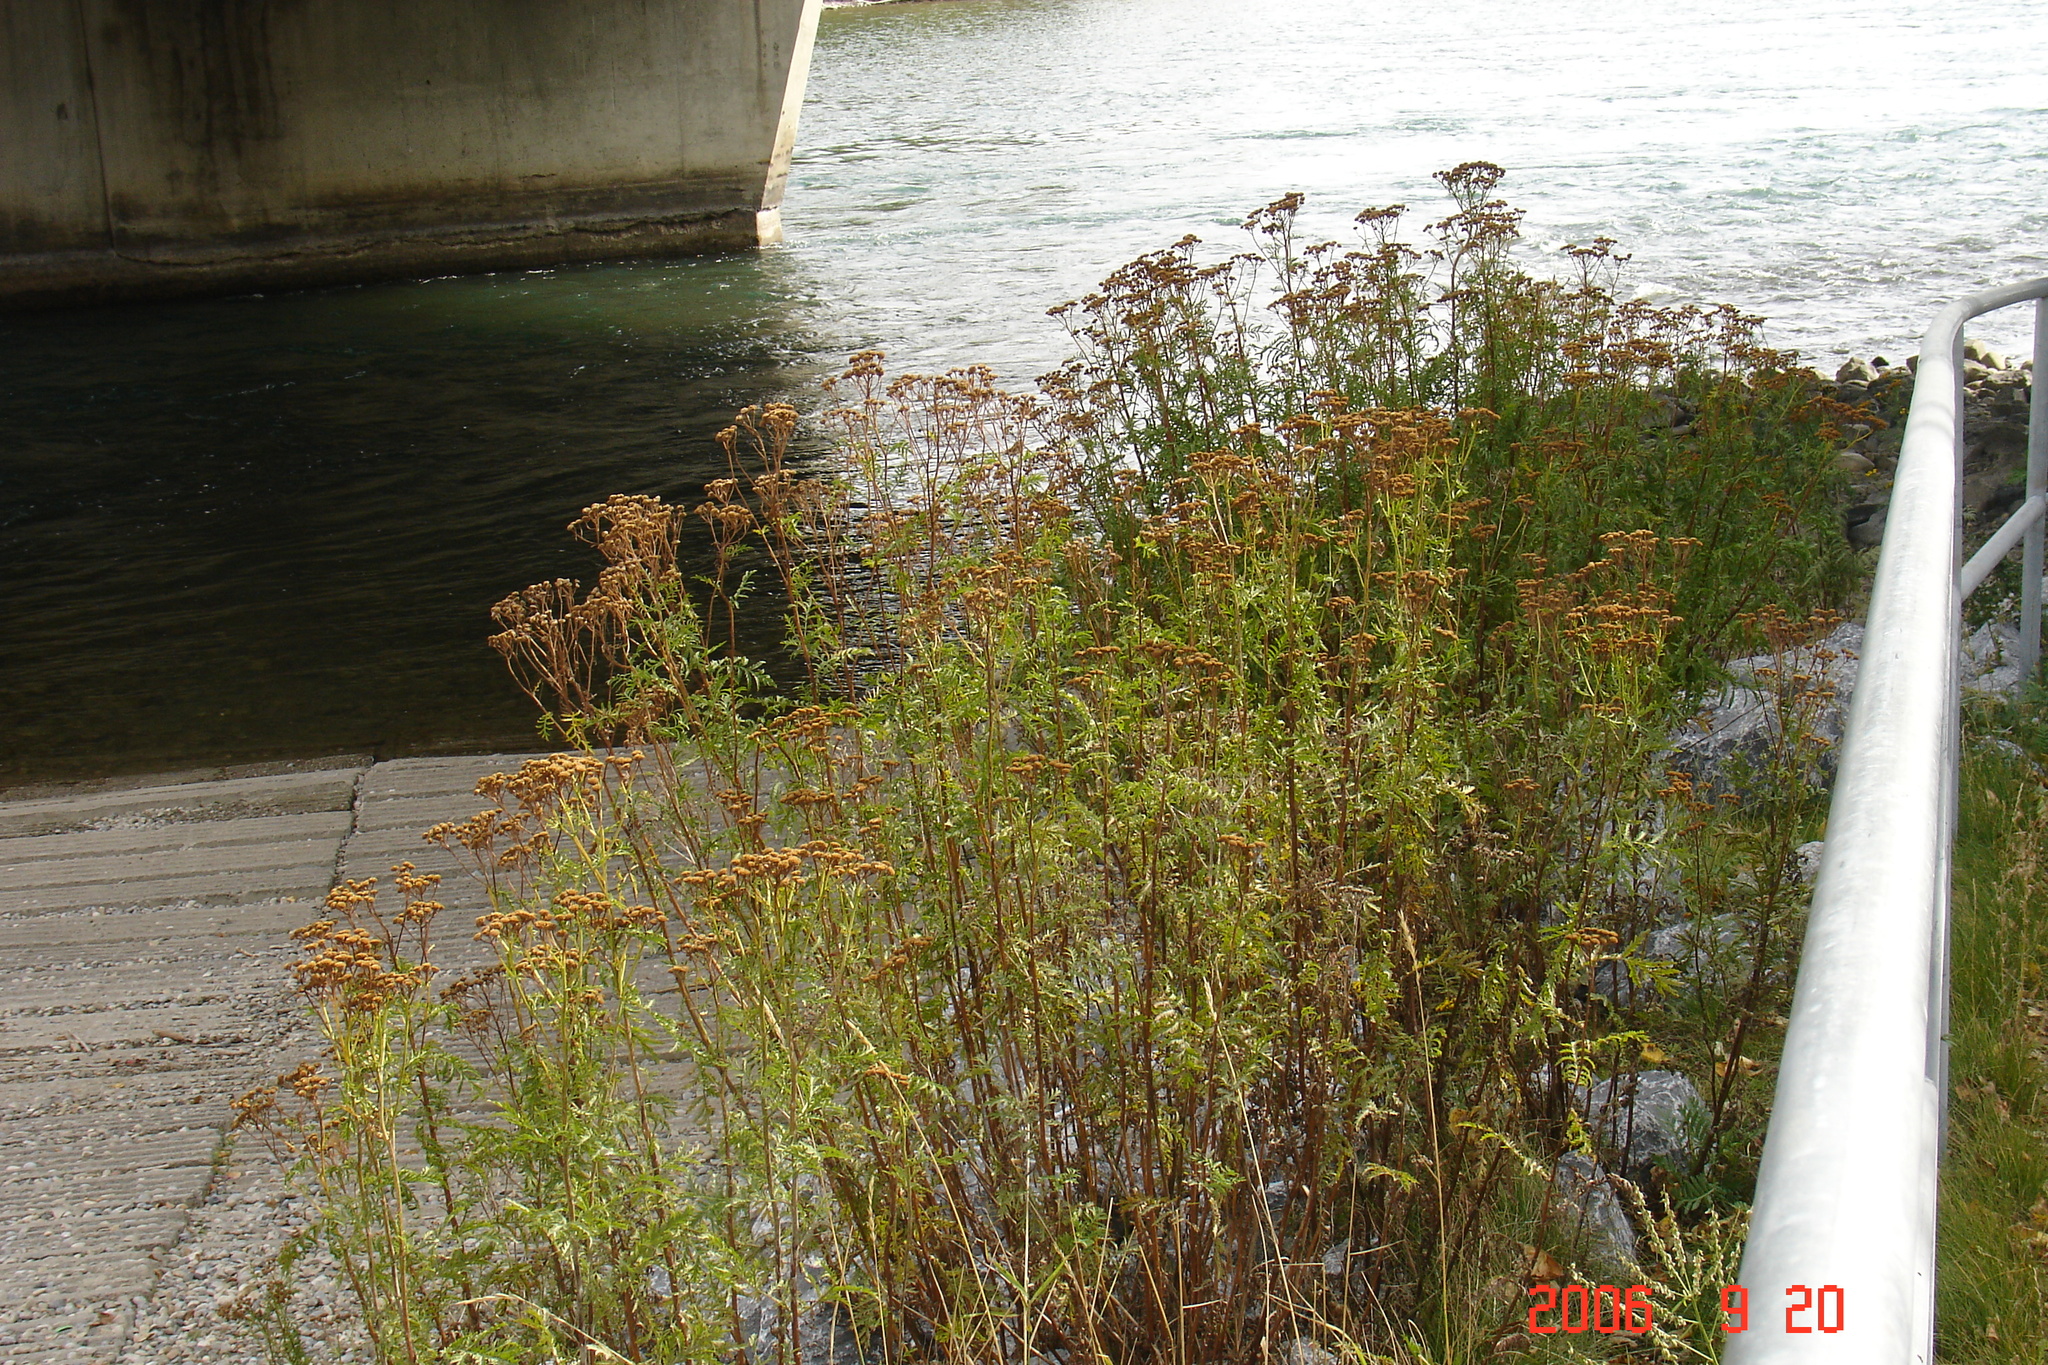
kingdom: Plantae
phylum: Tracheophyta
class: Magnoliopsida
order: Asterales
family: Asteraceae
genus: Tanacetum
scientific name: Tanacetum vulgare
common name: Common tansy
